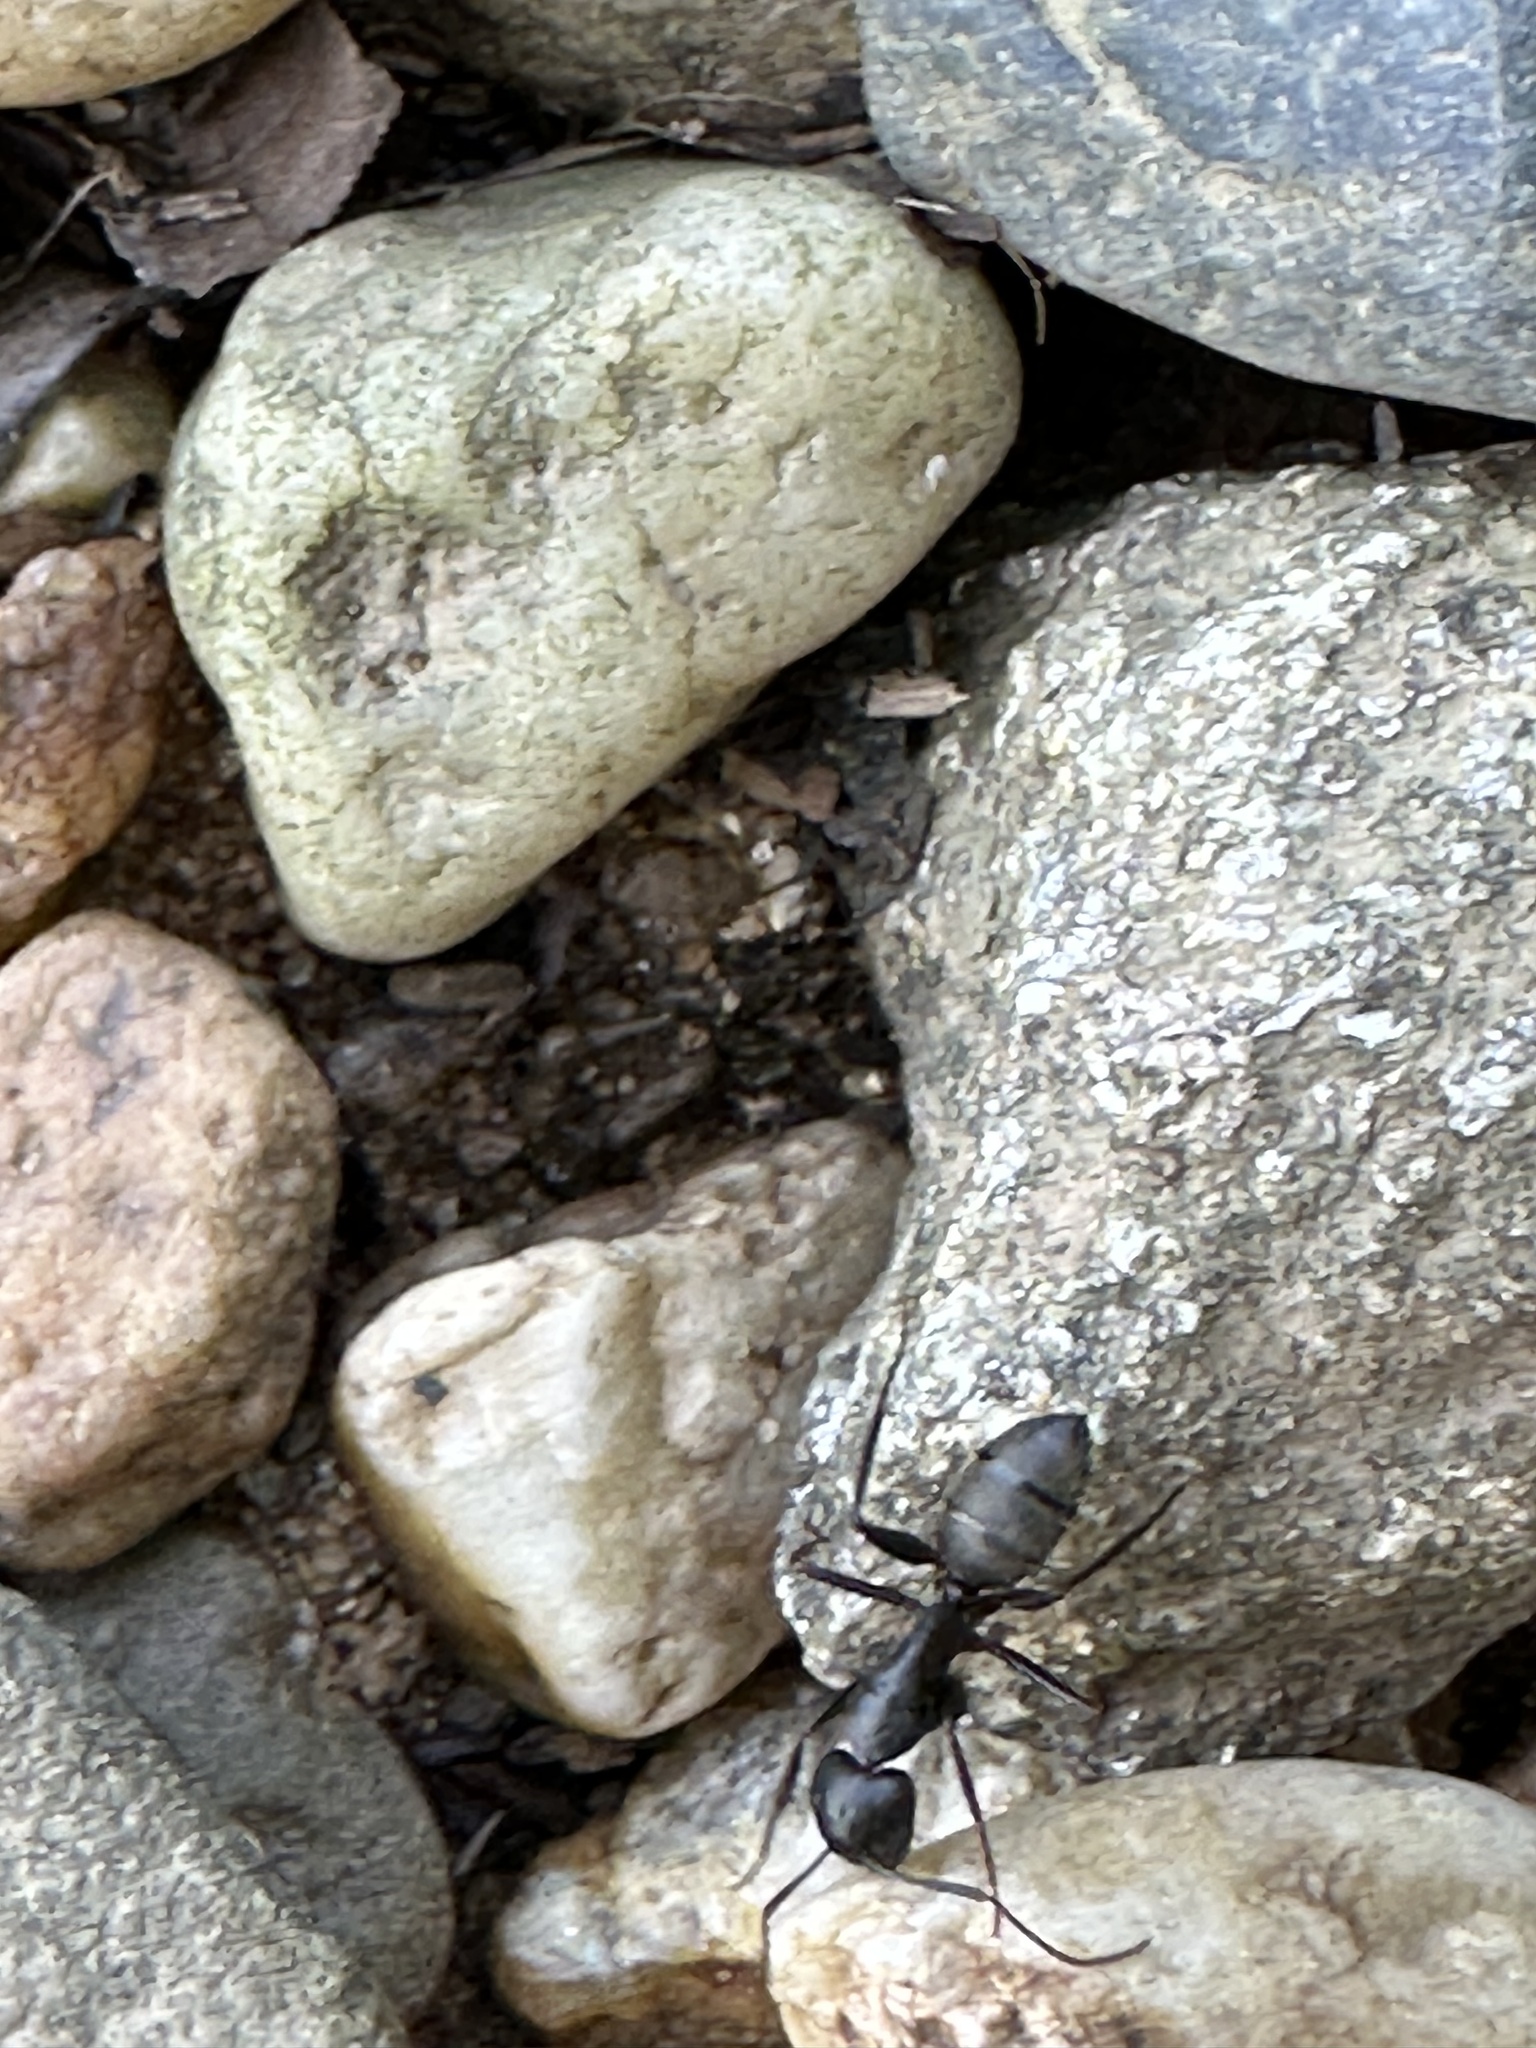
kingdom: Animalia
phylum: Arthropoda
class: Insecta
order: Hymenoptera
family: Formicidae
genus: Camponotus
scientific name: Camponotus pennsylvanicus
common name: Black carpenter ant
